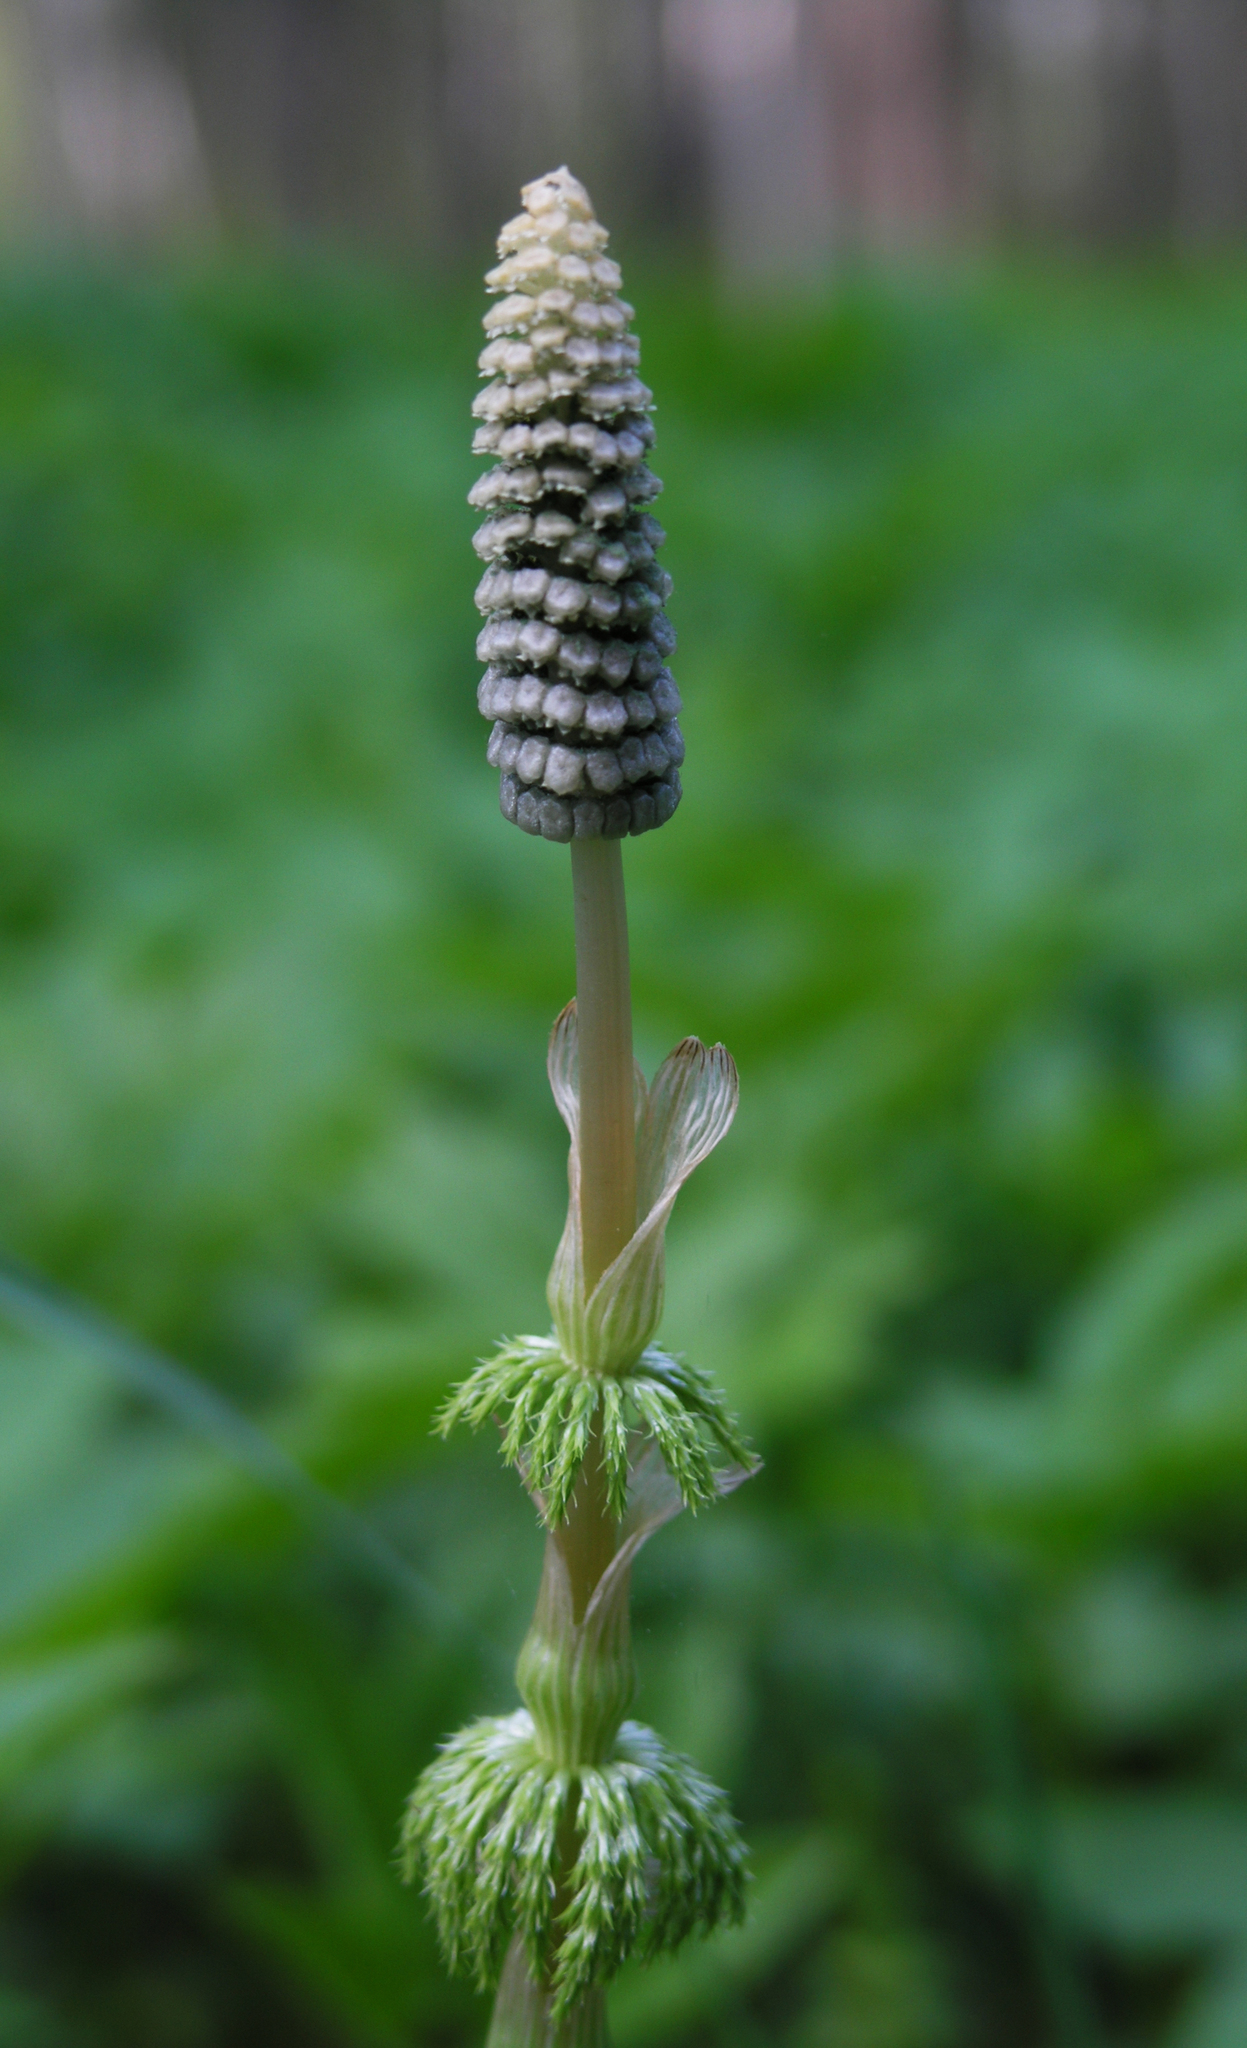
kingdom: Plantae
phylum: Tracheophyta
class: Polypodiopsida
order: Equisetales
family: Equisetaceae
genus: Equisetum
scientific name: Equisetum sylvaticum
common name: Wood horsetail
